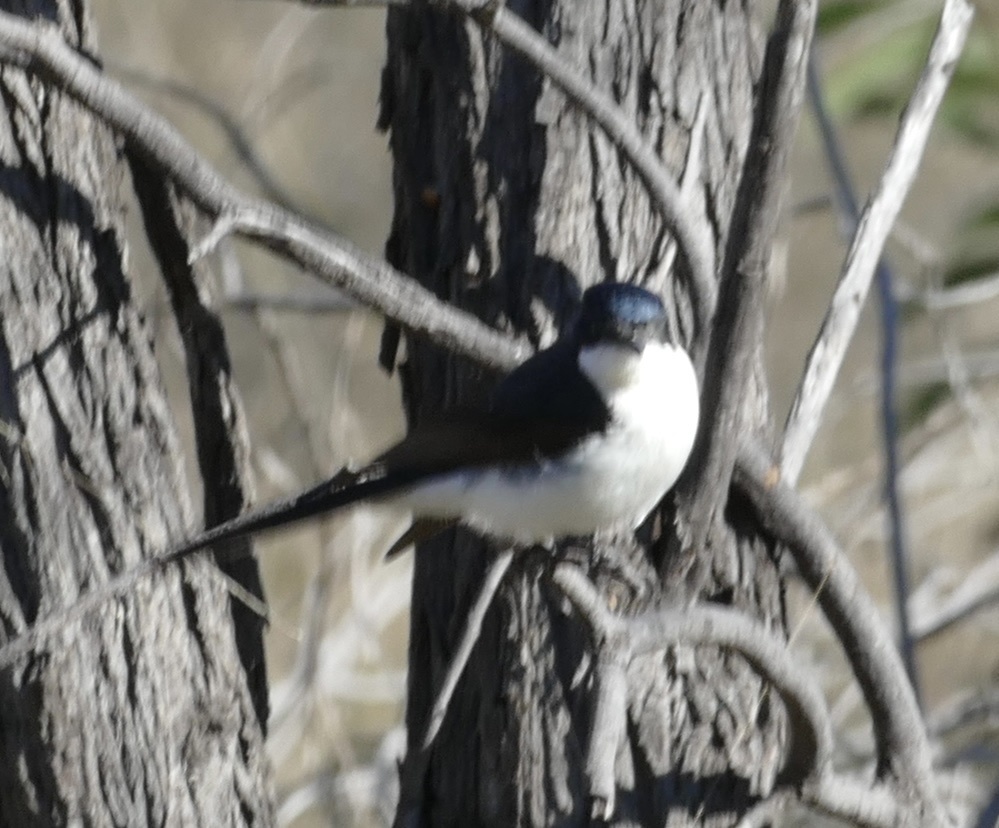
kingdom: Animalia
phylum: Chordata
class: Aves
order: Passeriformes
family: Monarchidae
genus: Myiagra
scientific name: Myiagra inquieta
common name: Restless flycatcher
